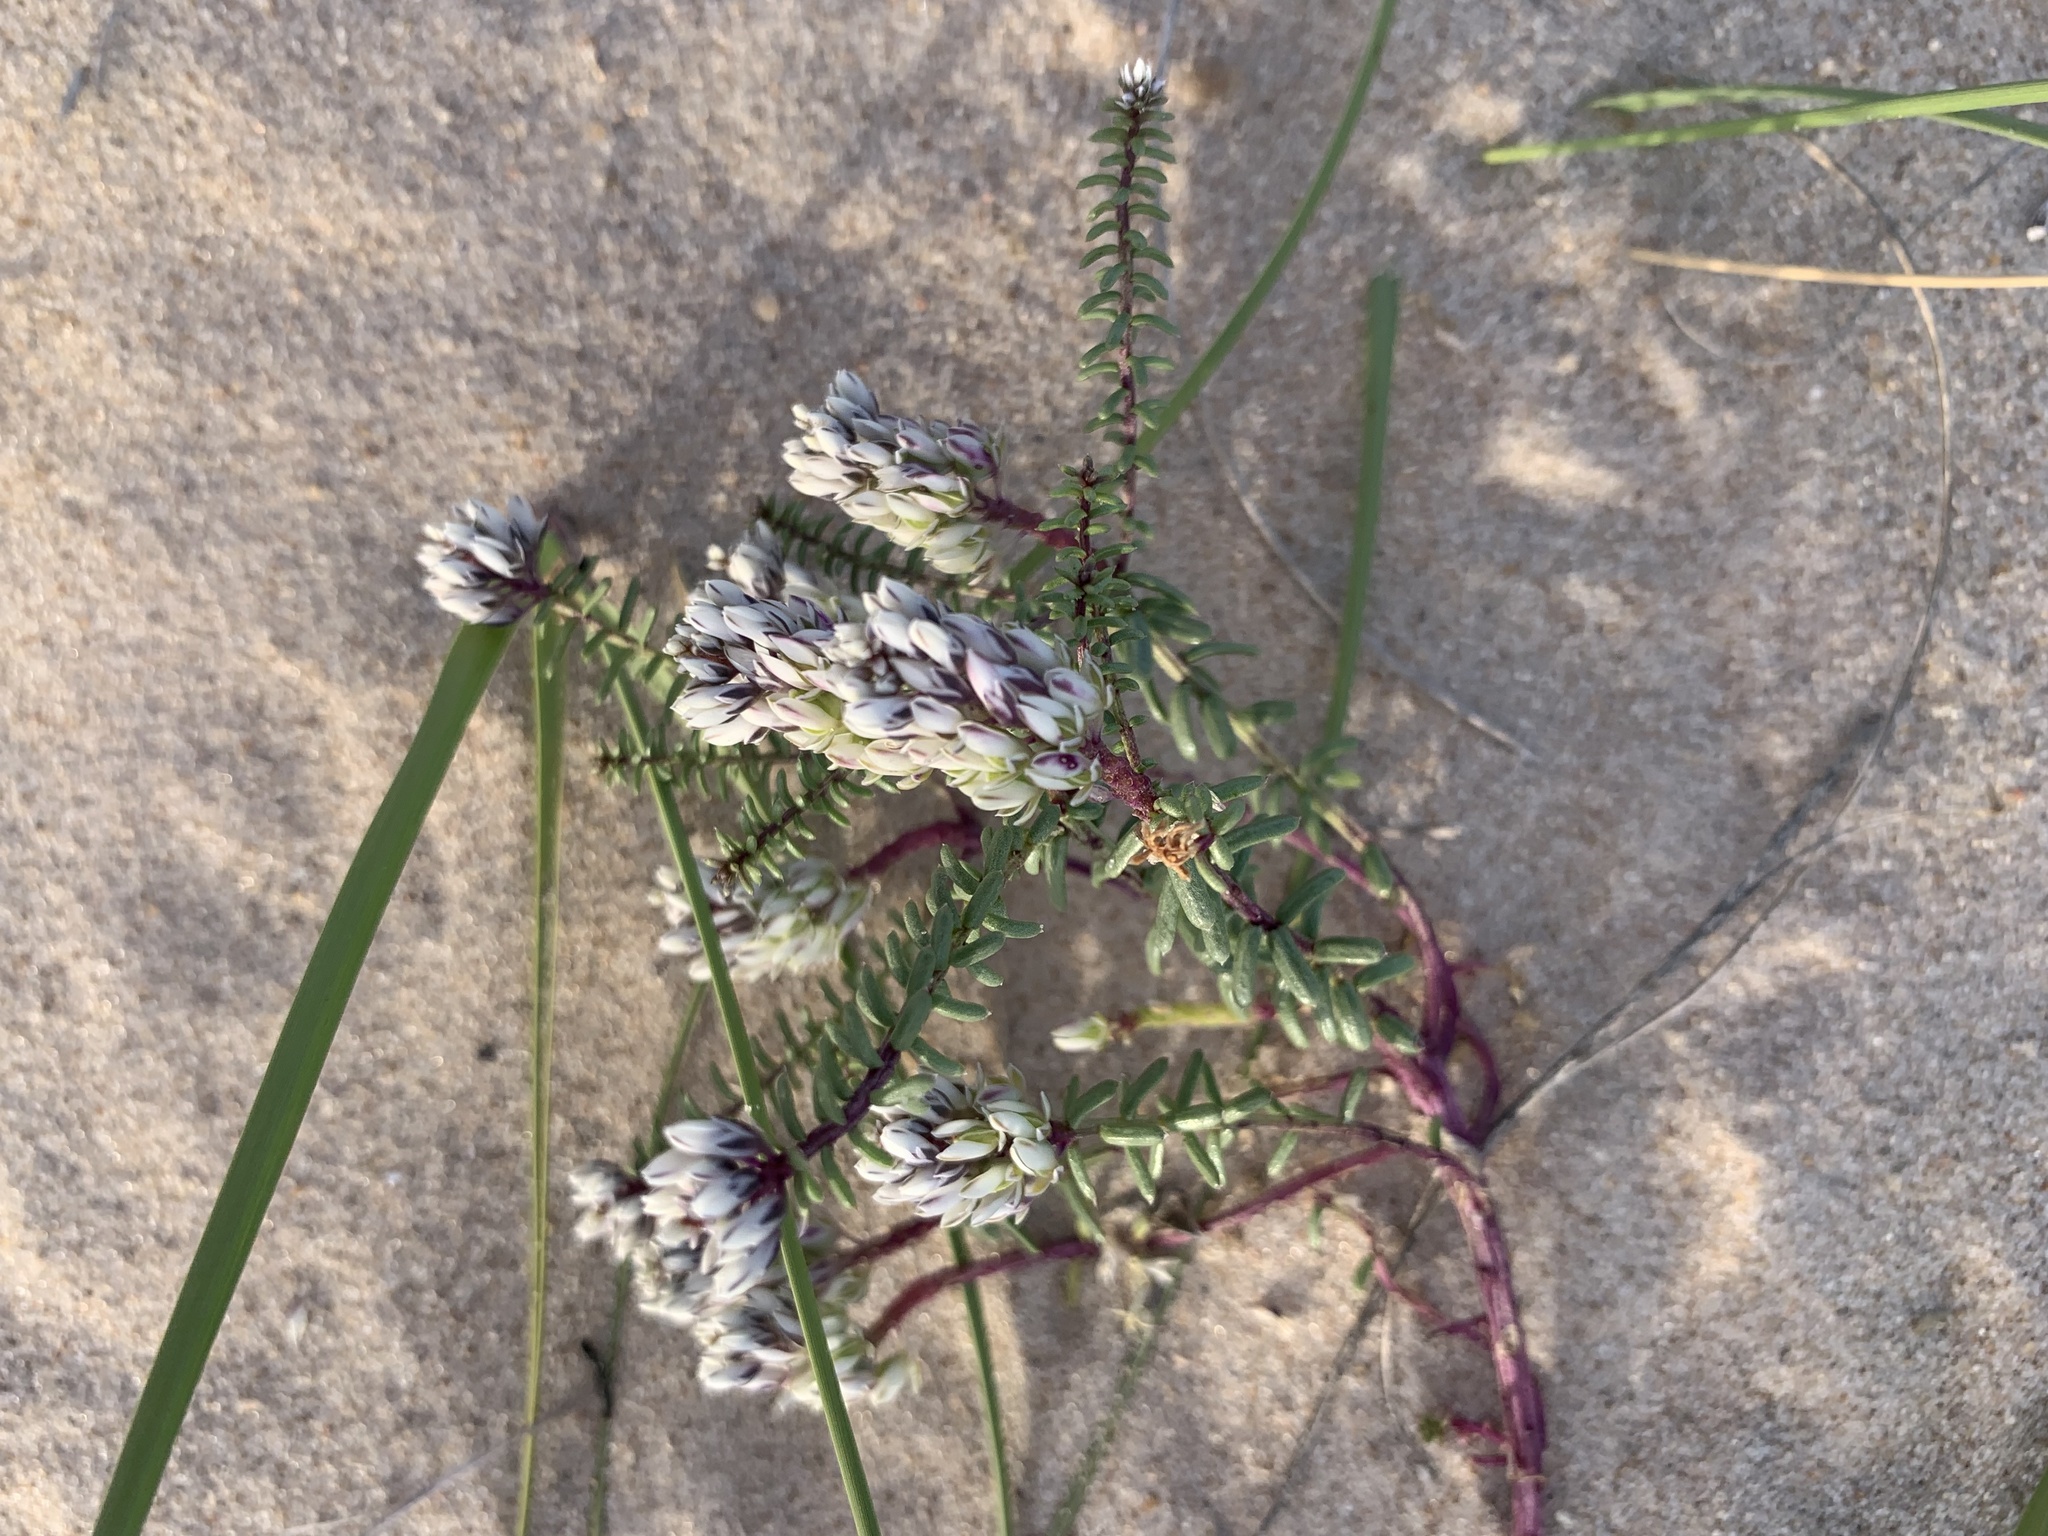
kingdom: Plantae
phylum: Tracheophyta
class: Magnoliopsida
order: Fabales
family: Polygalaceae
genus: Polygala
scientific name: Polygala cyparissias
